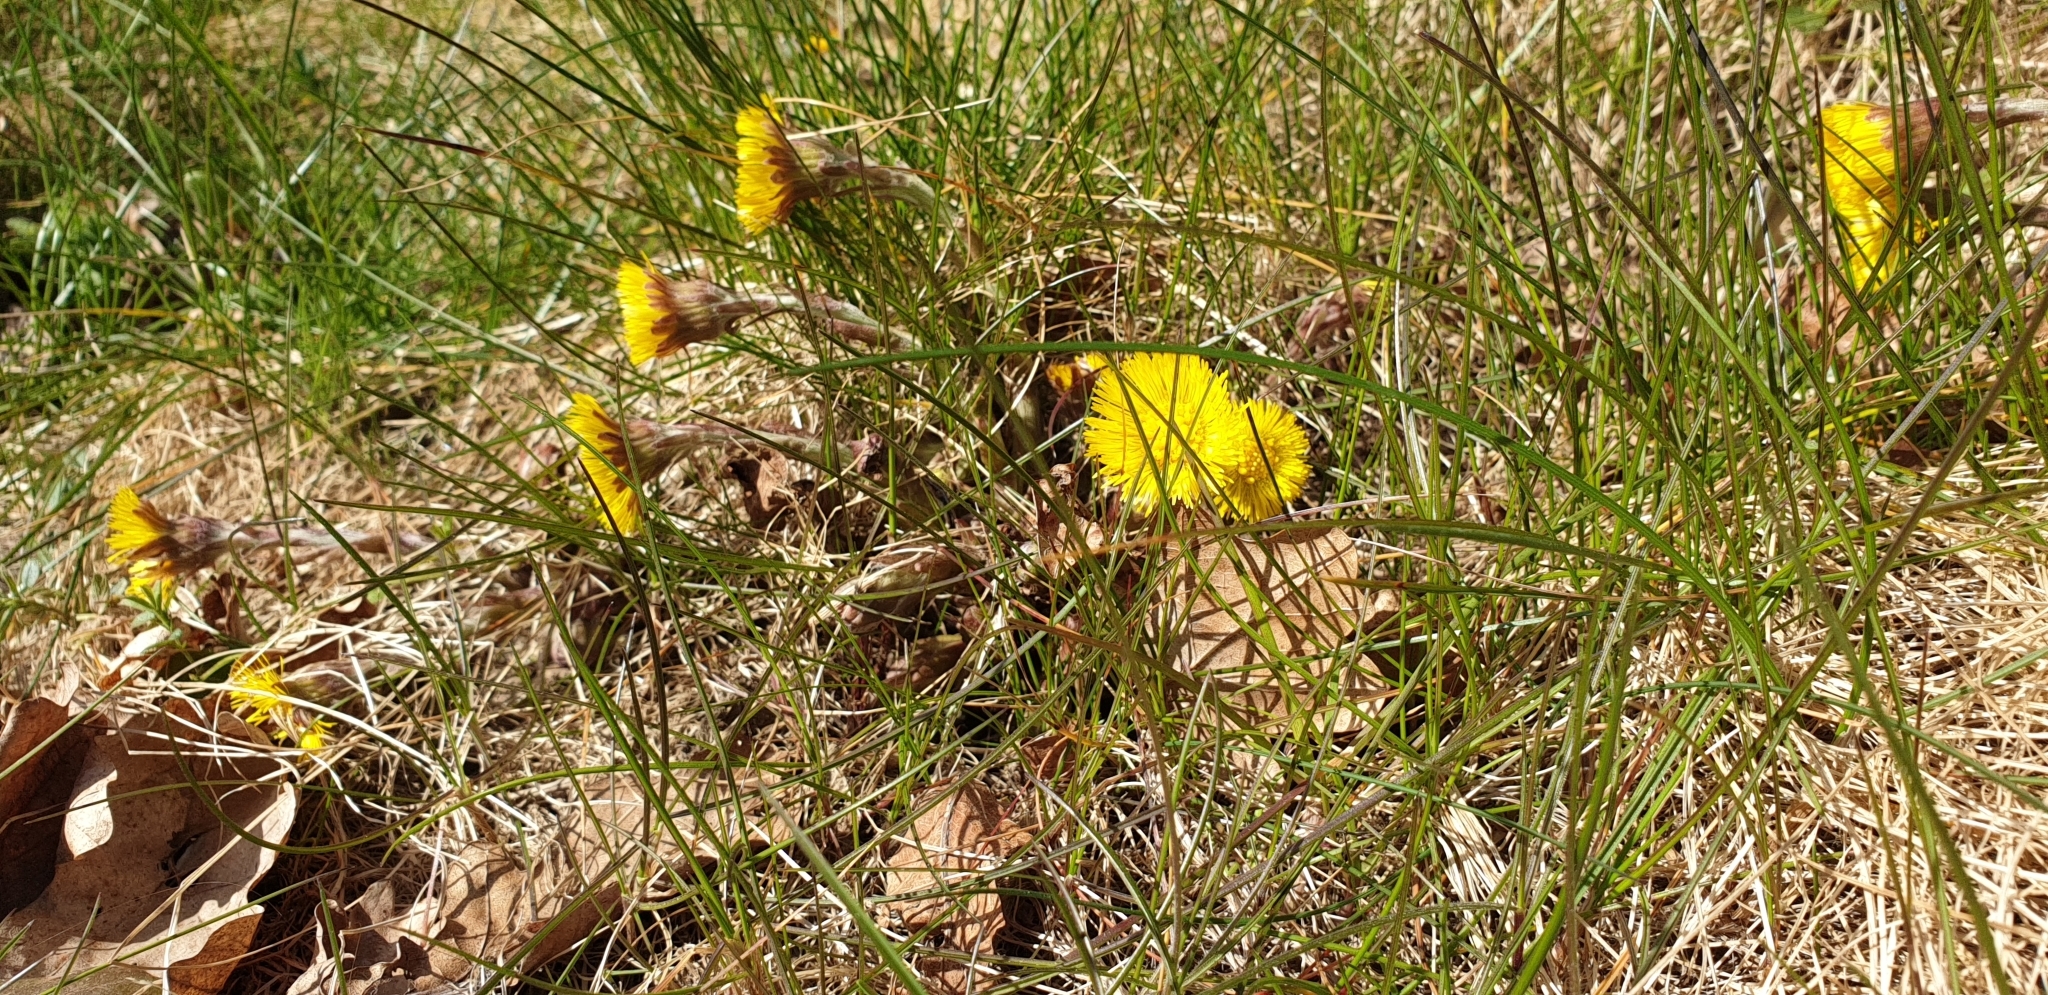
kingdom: Plantae
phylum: Tracheophyta
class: Magnoliopsida
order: Asterales
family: Asteraceae
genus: Tussilago
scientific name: Tussilago farfara
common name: Coltsfoot
